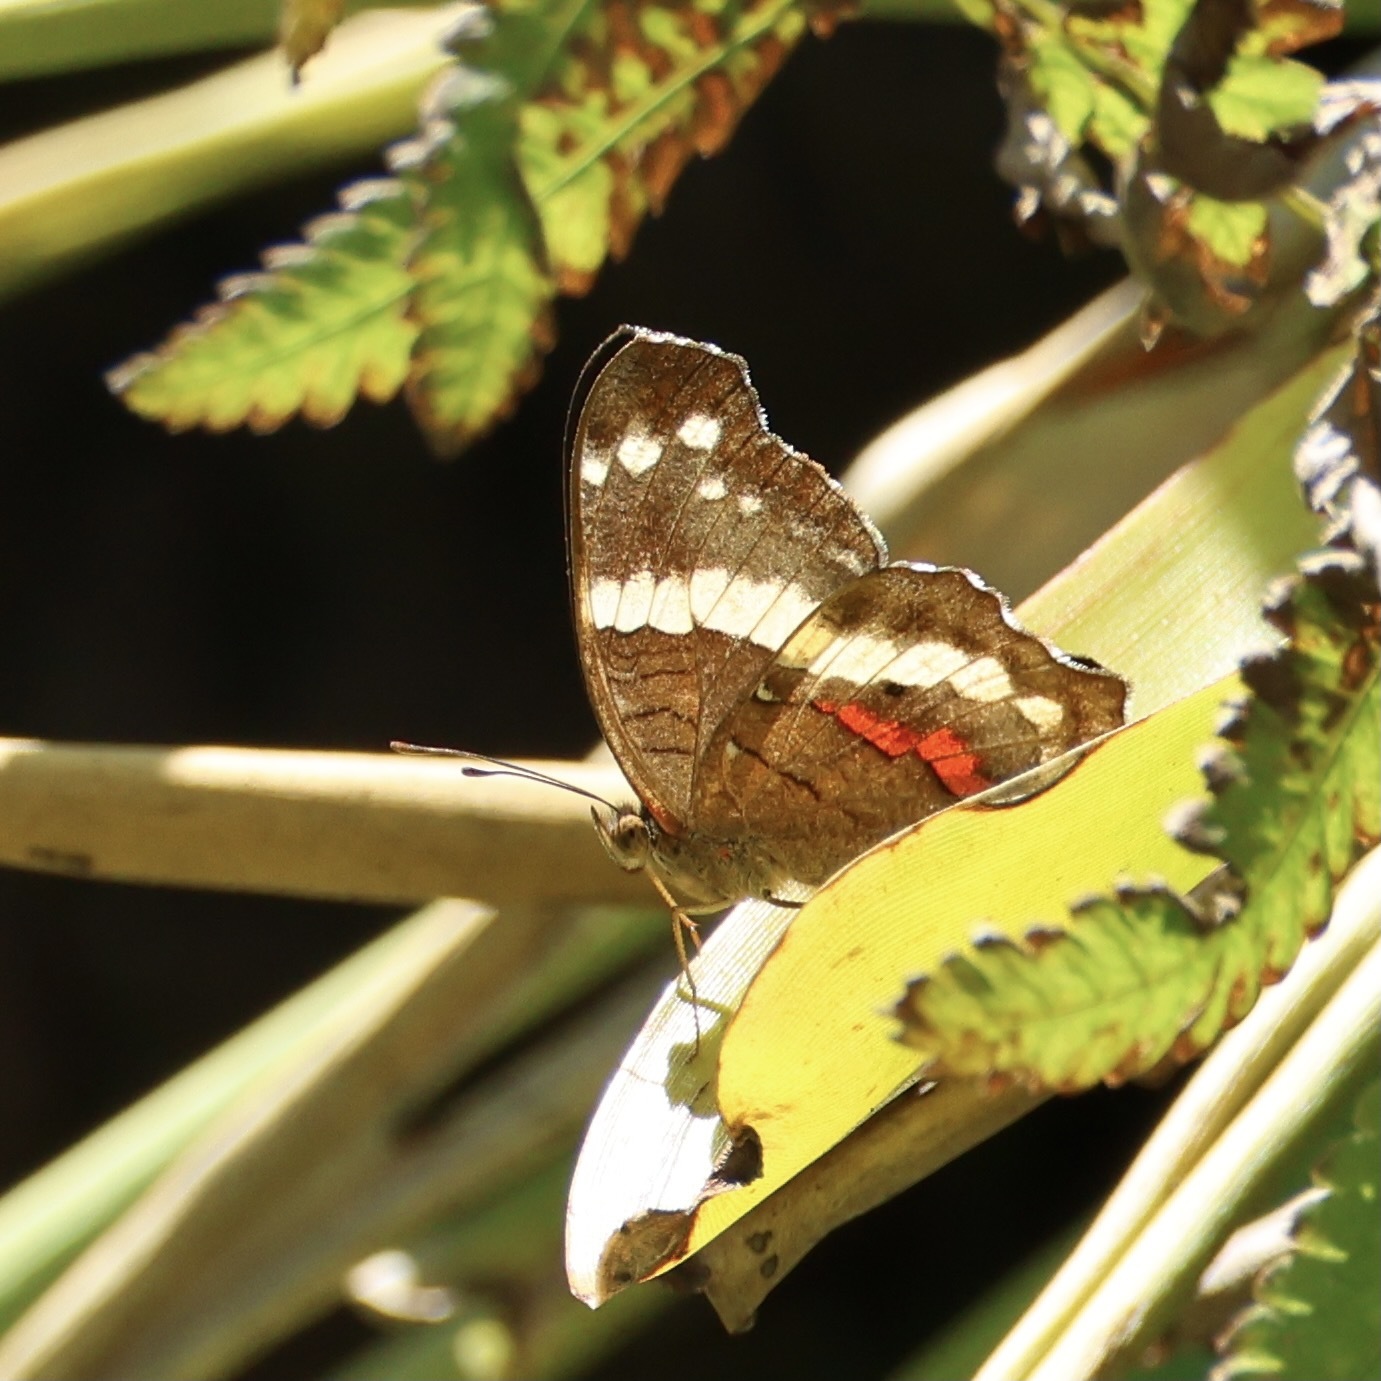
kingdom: Animalia
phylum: Arthropoda
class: Insecta
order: Lepidoptera
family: Nymphalidae
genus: Anartia
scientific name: Anartia fatima
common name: Banded peacock
